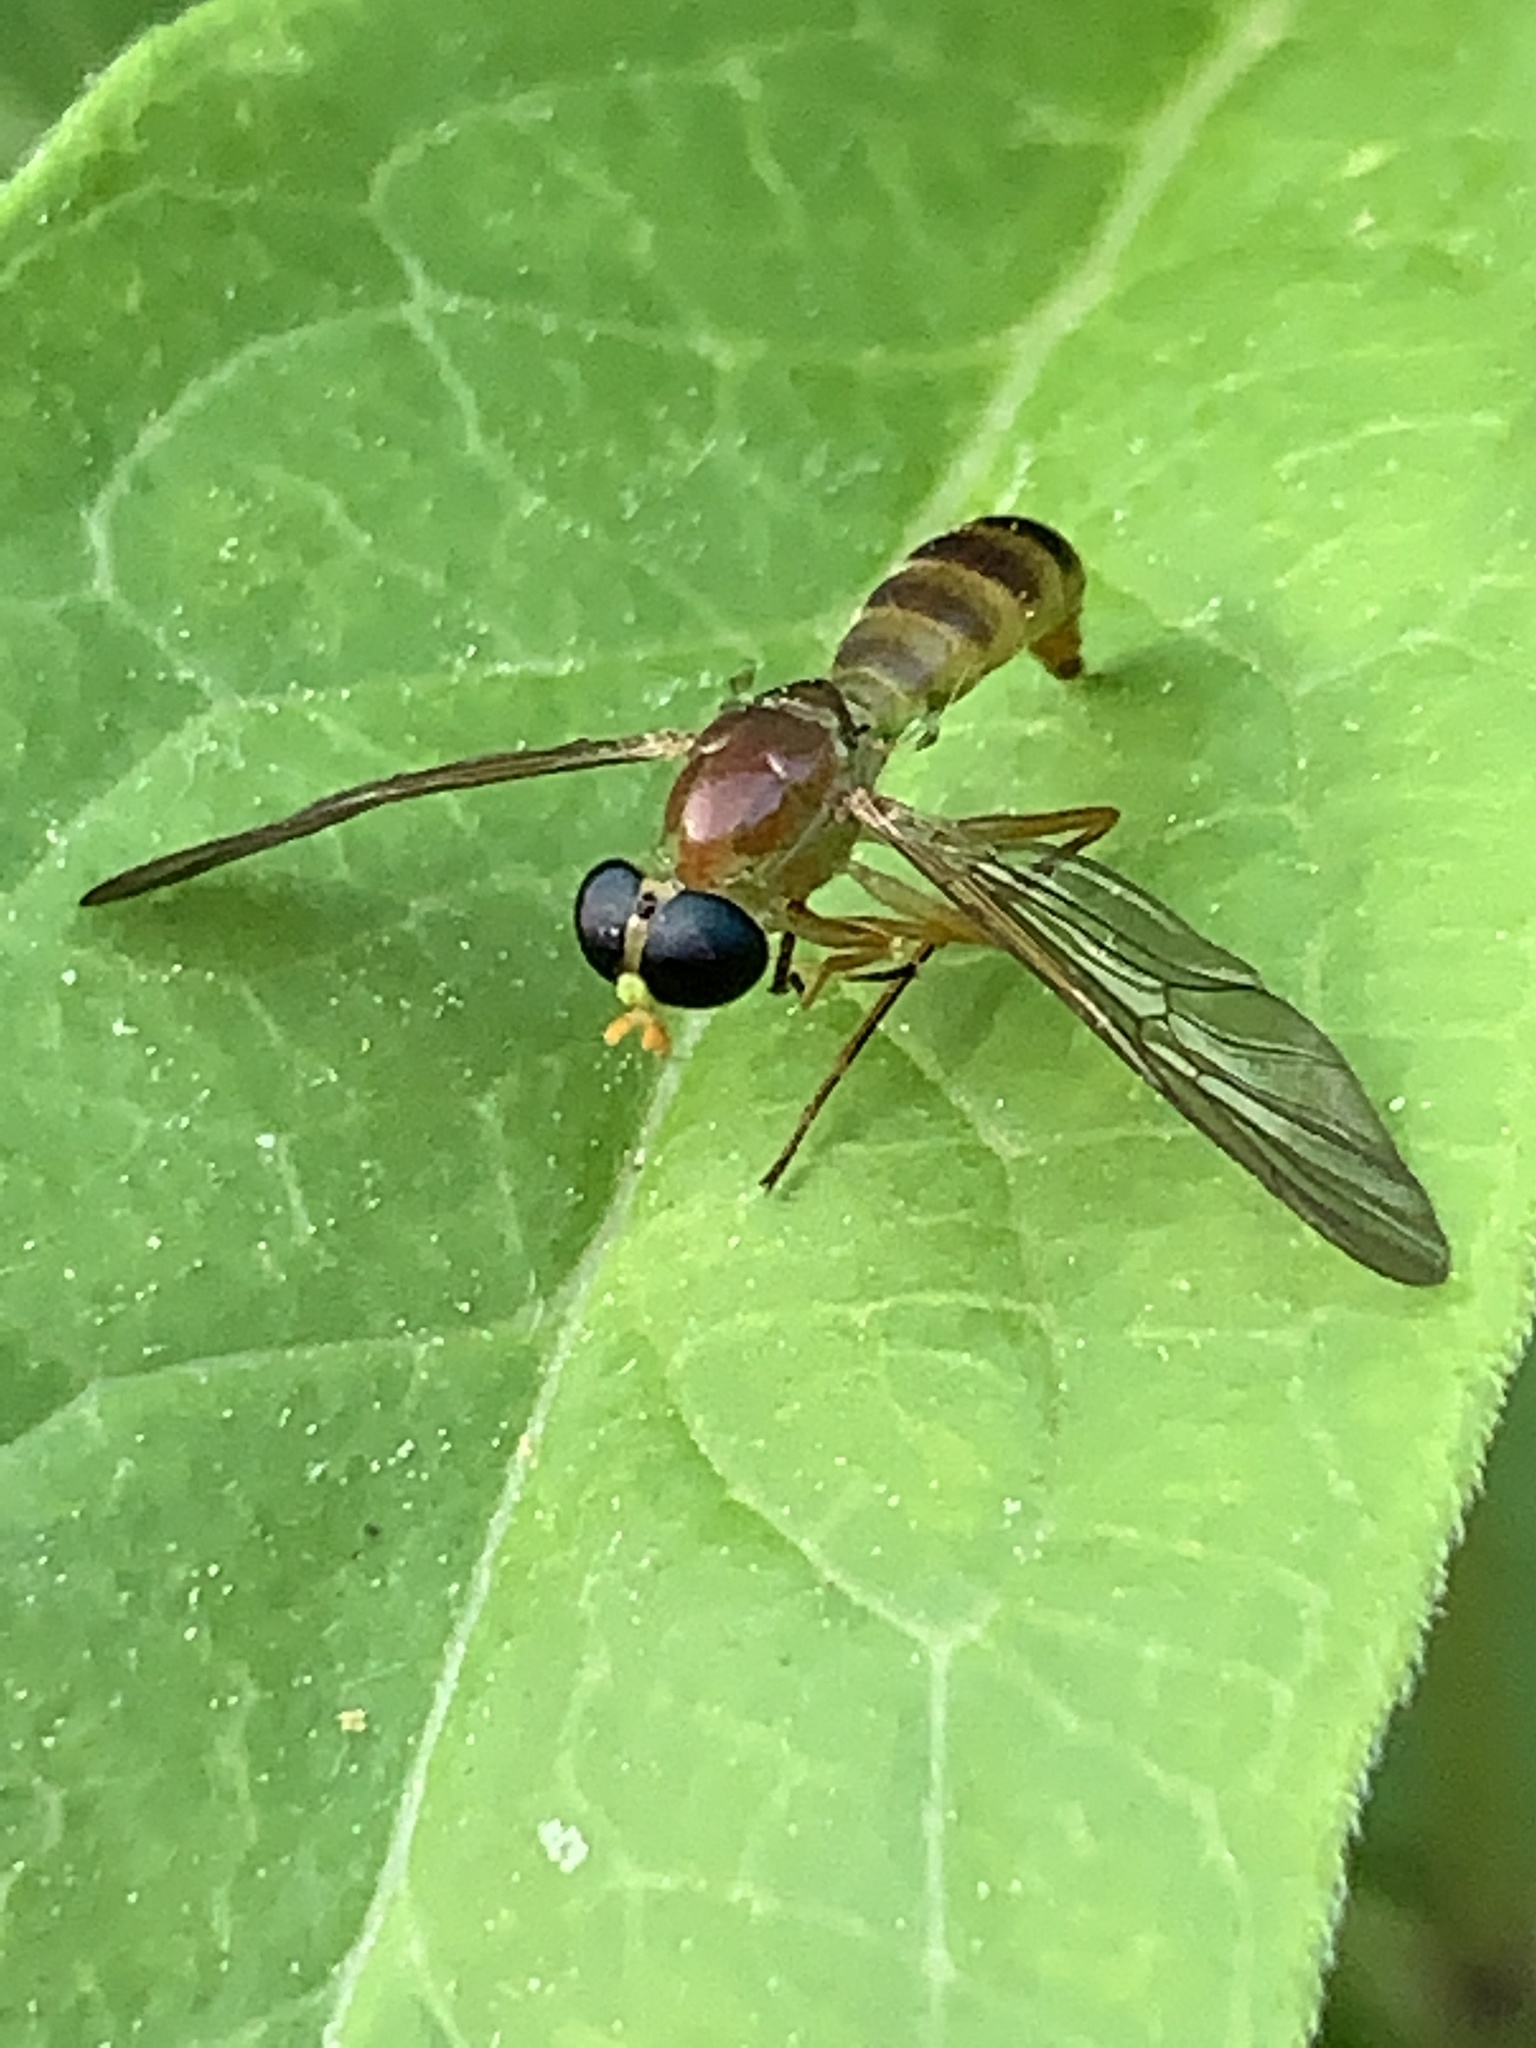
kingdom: Animalia
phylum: Arthropoda
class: Insecta
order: Diptera
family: Stratiomyidae
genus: Ptecticus
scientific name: Ptecticus trivittatus
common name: Compost fly
